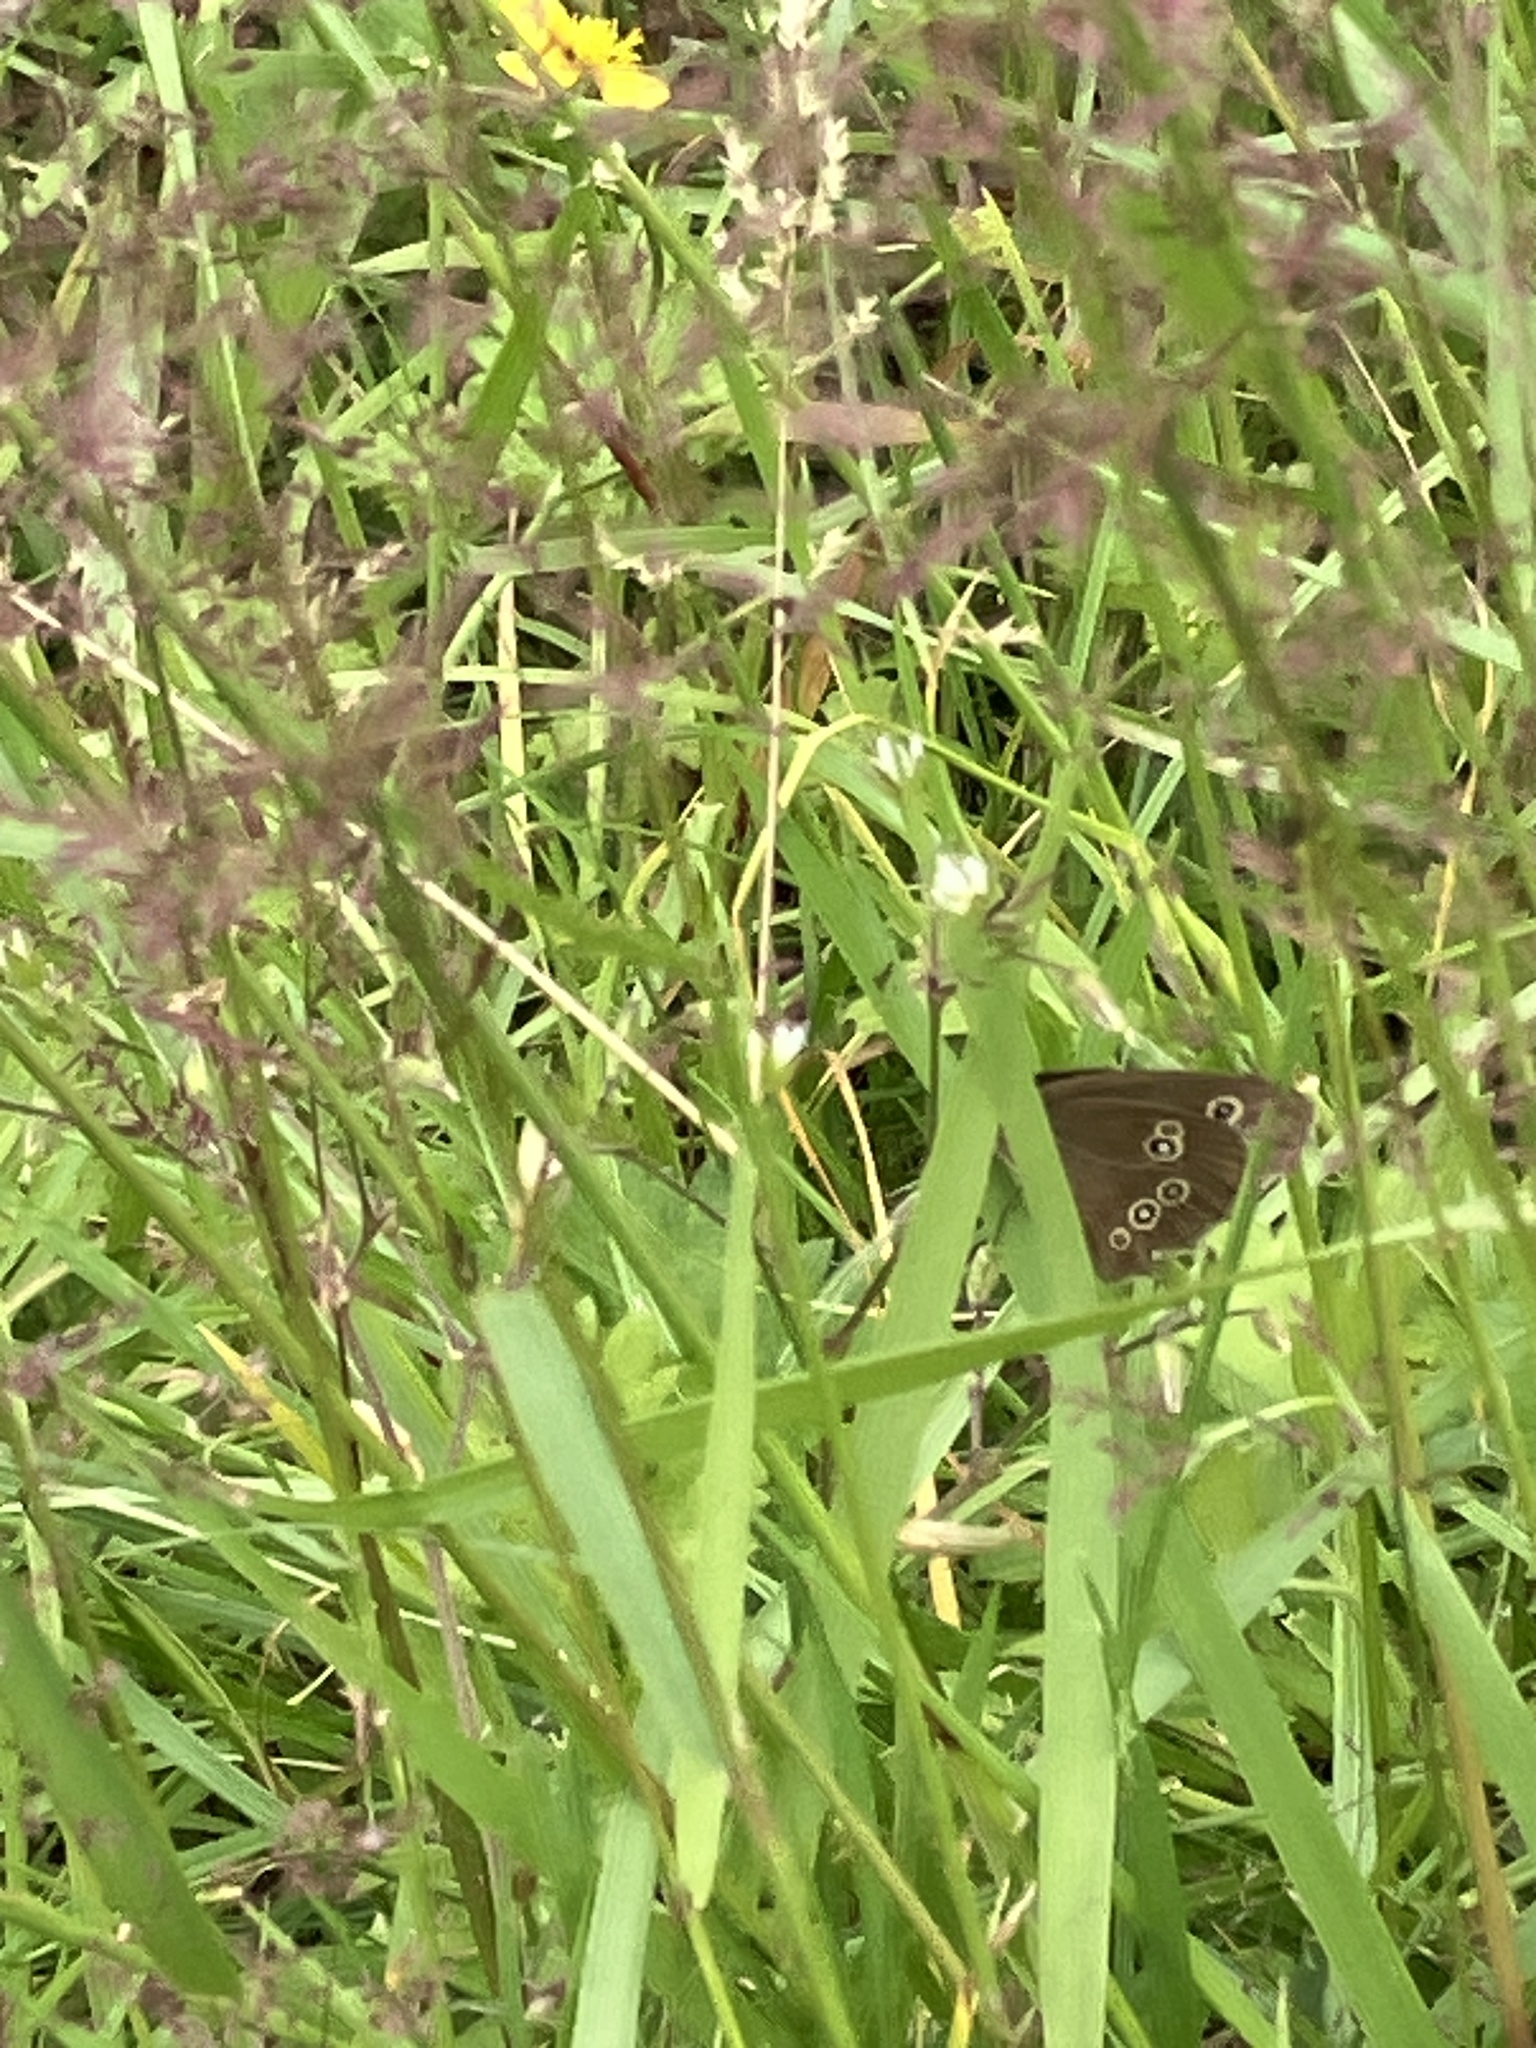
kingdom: Animalia
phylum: Arthropoda
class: Insecta
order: Lepidoptera
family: Nymphalidae
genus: Aphantopus
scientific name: Aphantopus hyperantus
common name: Ringlet
